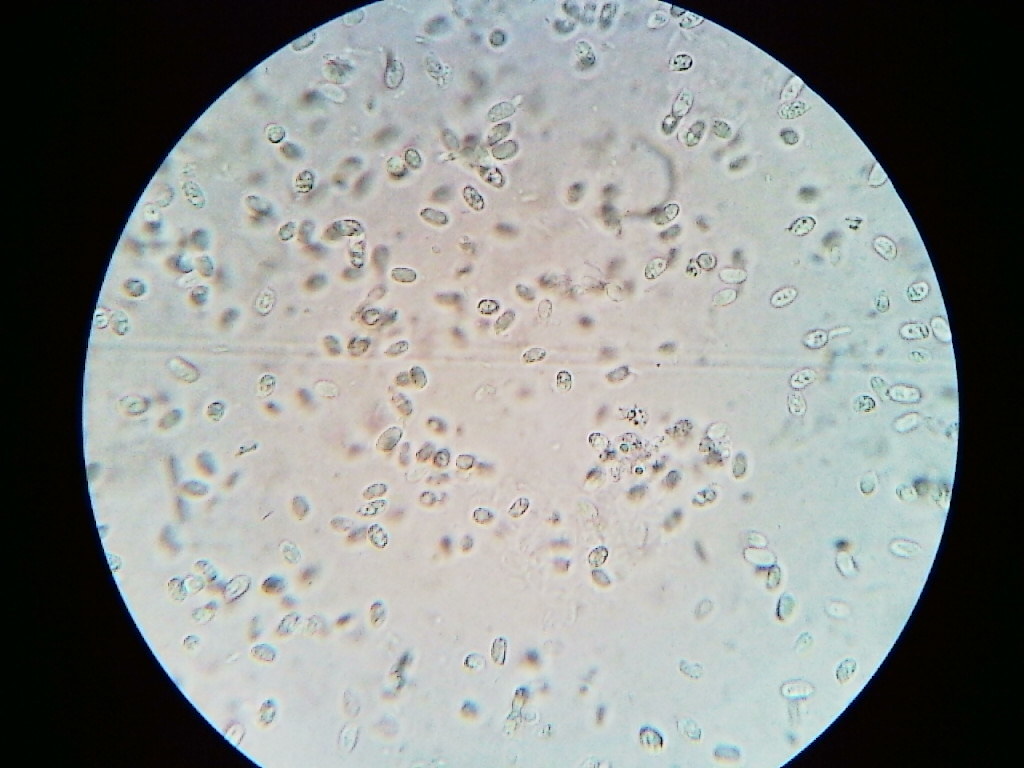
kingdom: Fungi
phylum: Basidiomycota
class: Agaricomycetes
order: Agaricales
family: Mycenaceae
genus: Mycena
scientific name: Mycena semivestipes
